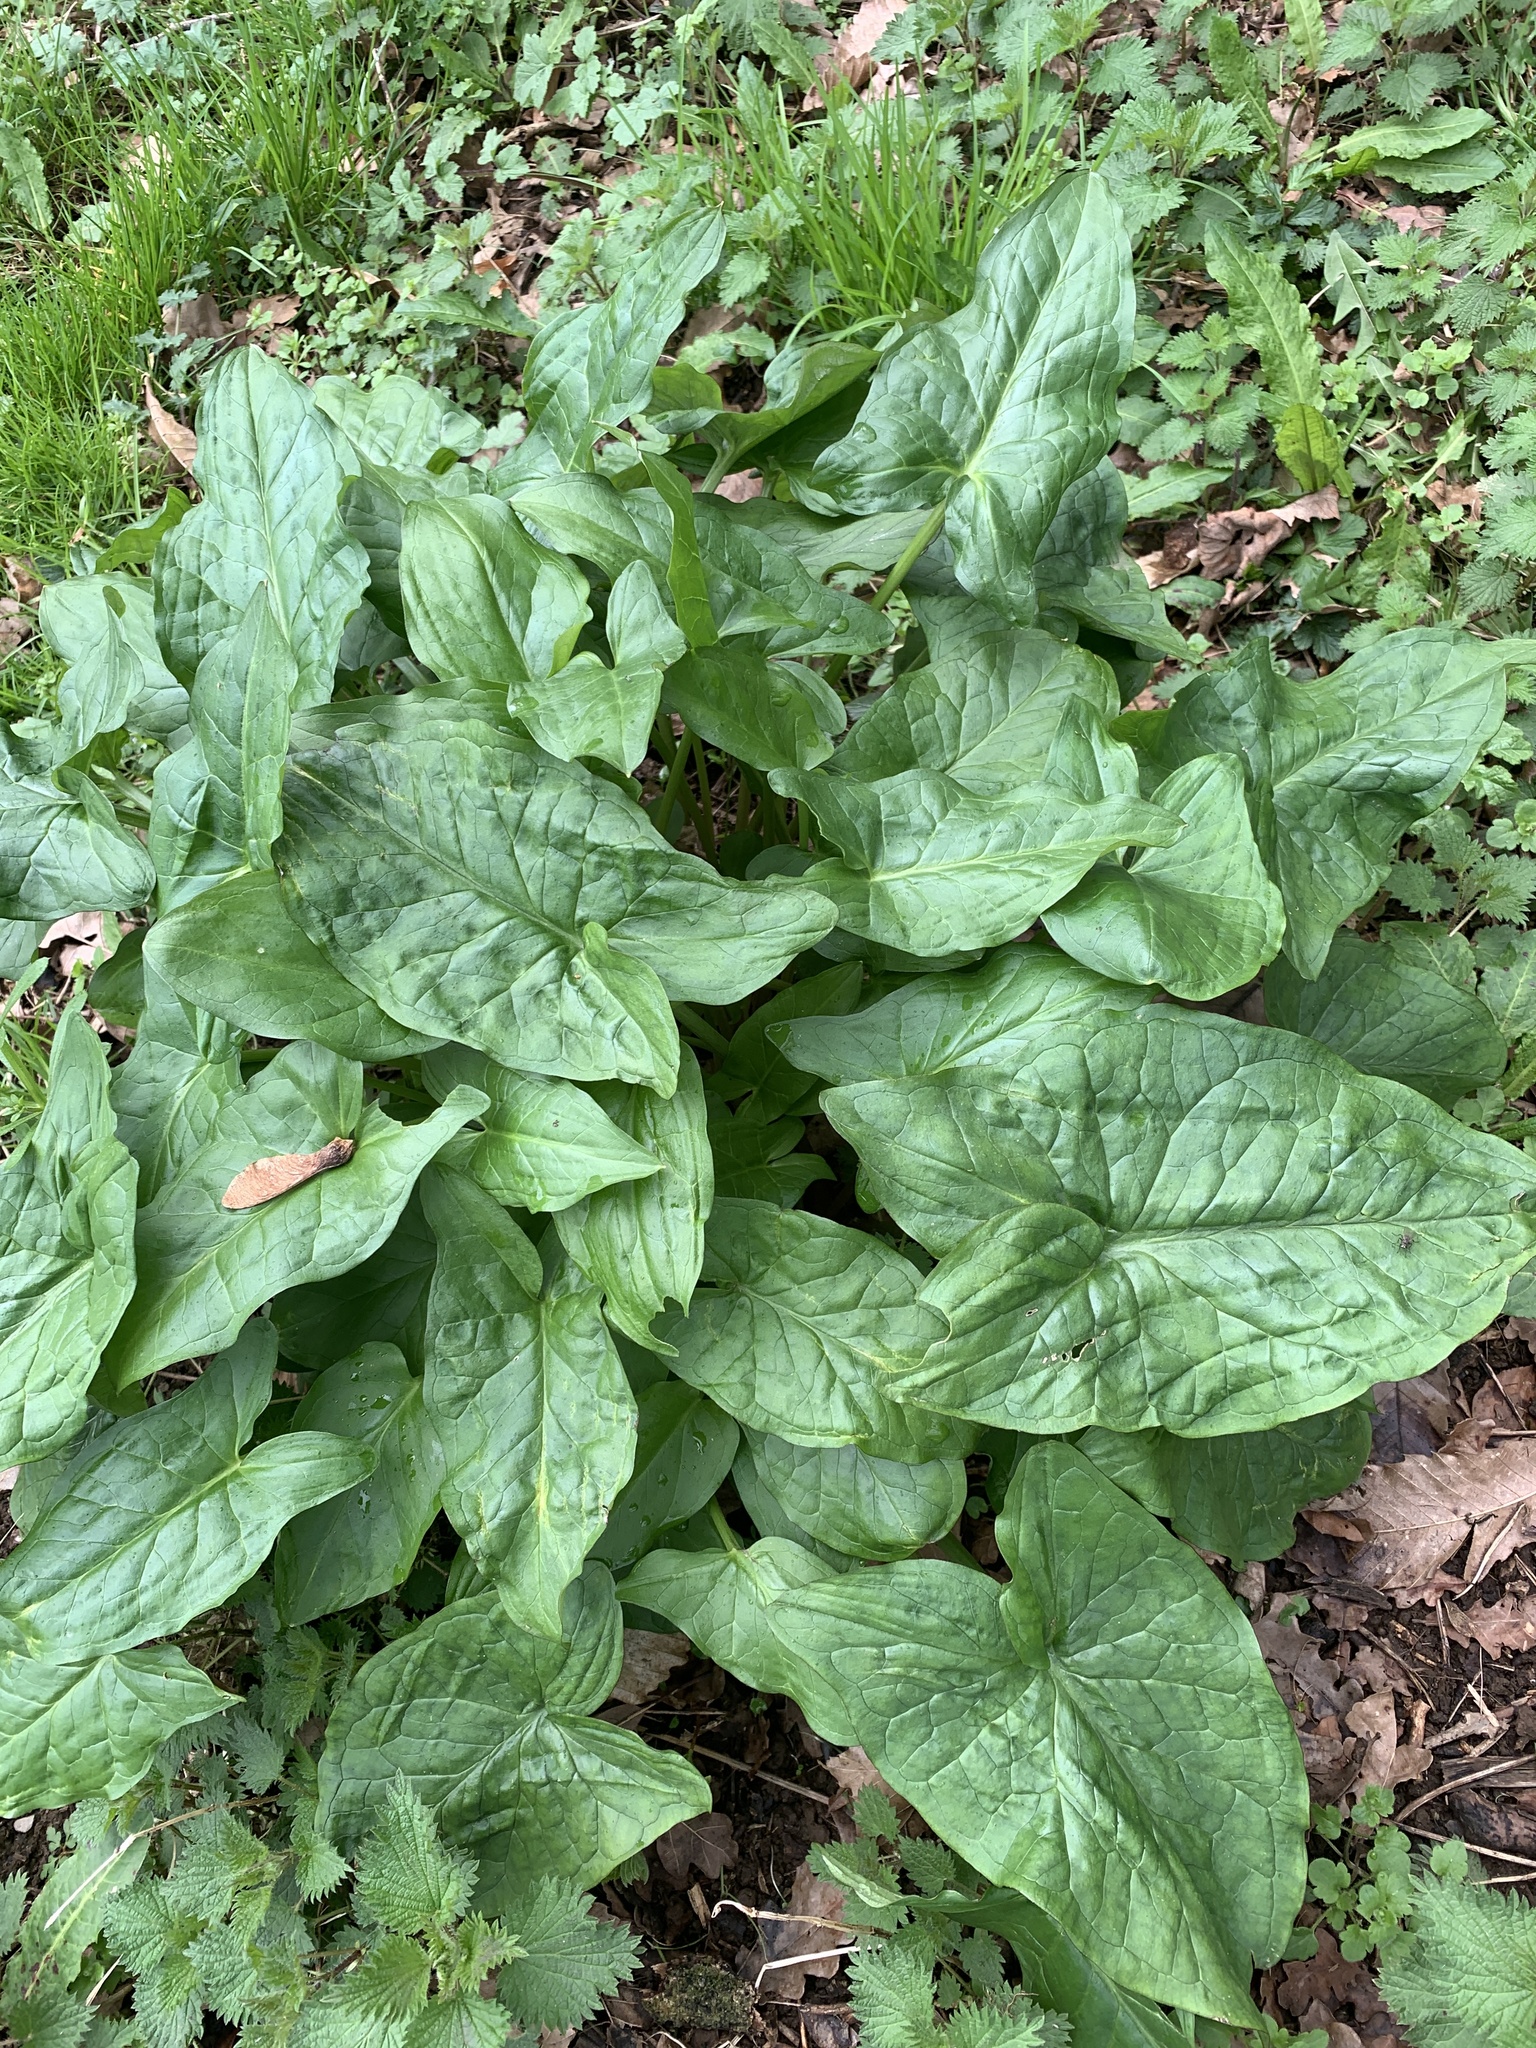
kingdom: Plantae
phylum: Tracheophyta
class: Liliopsida
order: Alismatales
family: Araceae
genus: Arum
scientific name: Arum maculatum
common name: Lords-and-ladies
